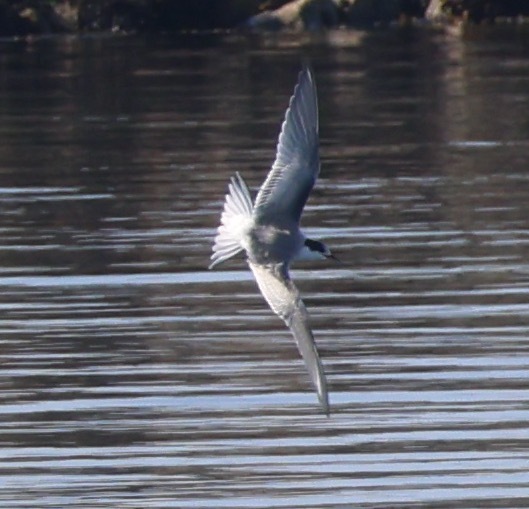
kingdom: Animalia
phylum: Chordata
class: Aves
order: Charadriiformes
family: Laridae
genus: Sterna
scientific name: Sterna hirundo
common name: Common tern
